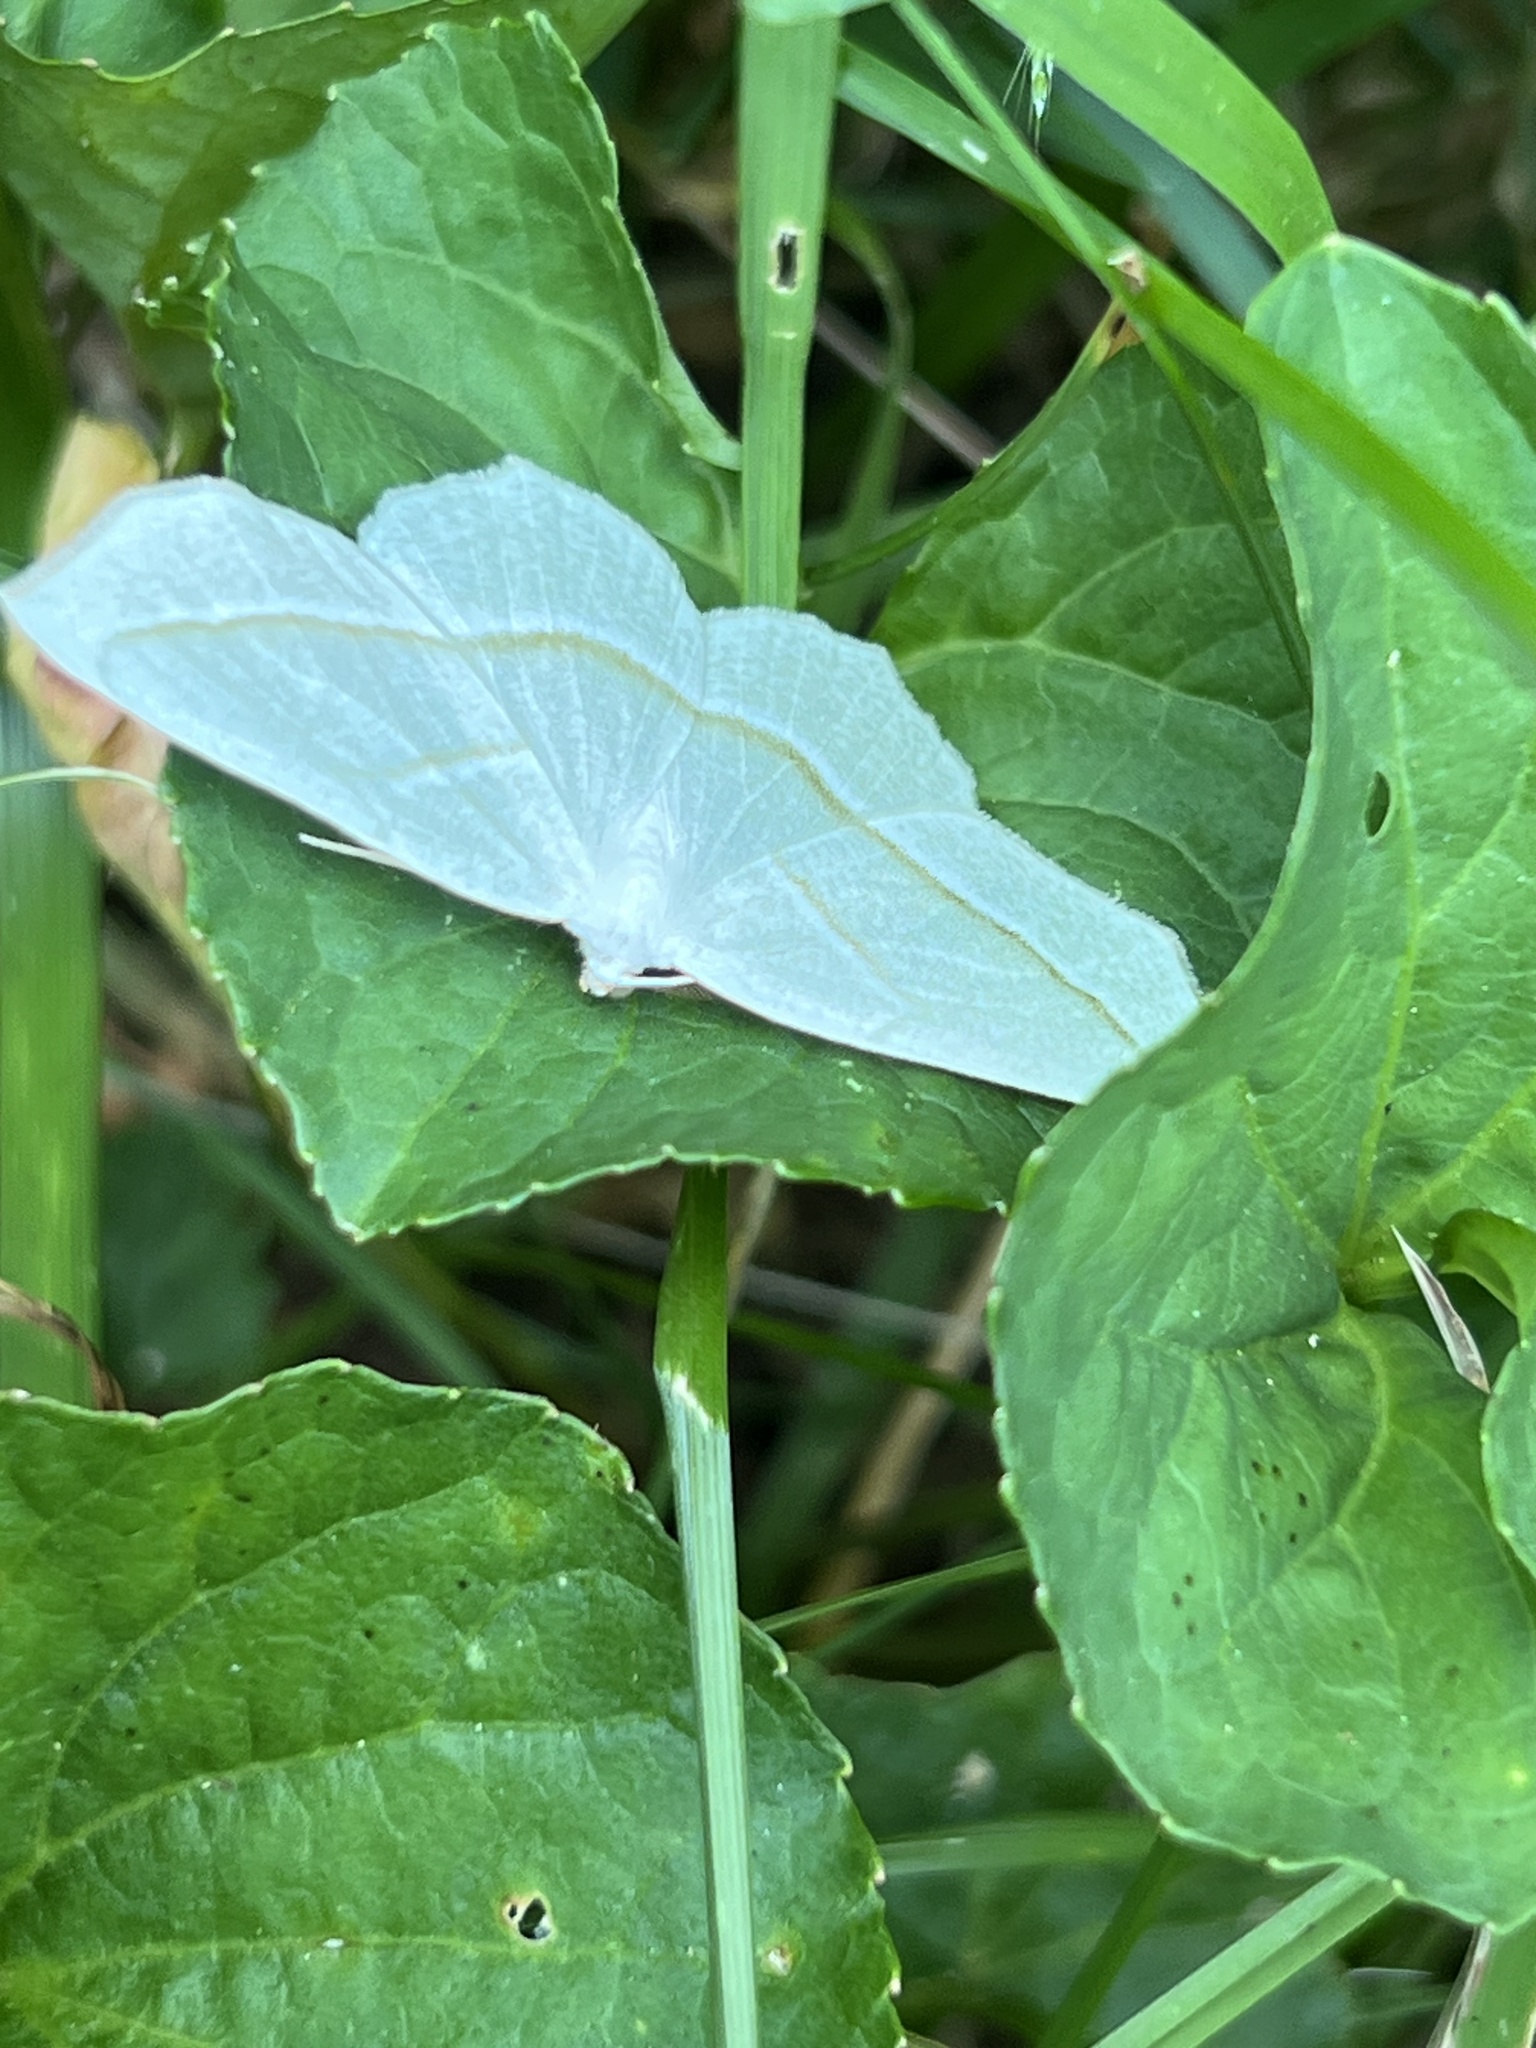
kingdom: Animalia
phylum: Arthropoda
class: Insecta
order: Lepidoptera
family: Geometridae
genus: Campaea
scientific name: Campaea perlata
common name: Fringed looper
